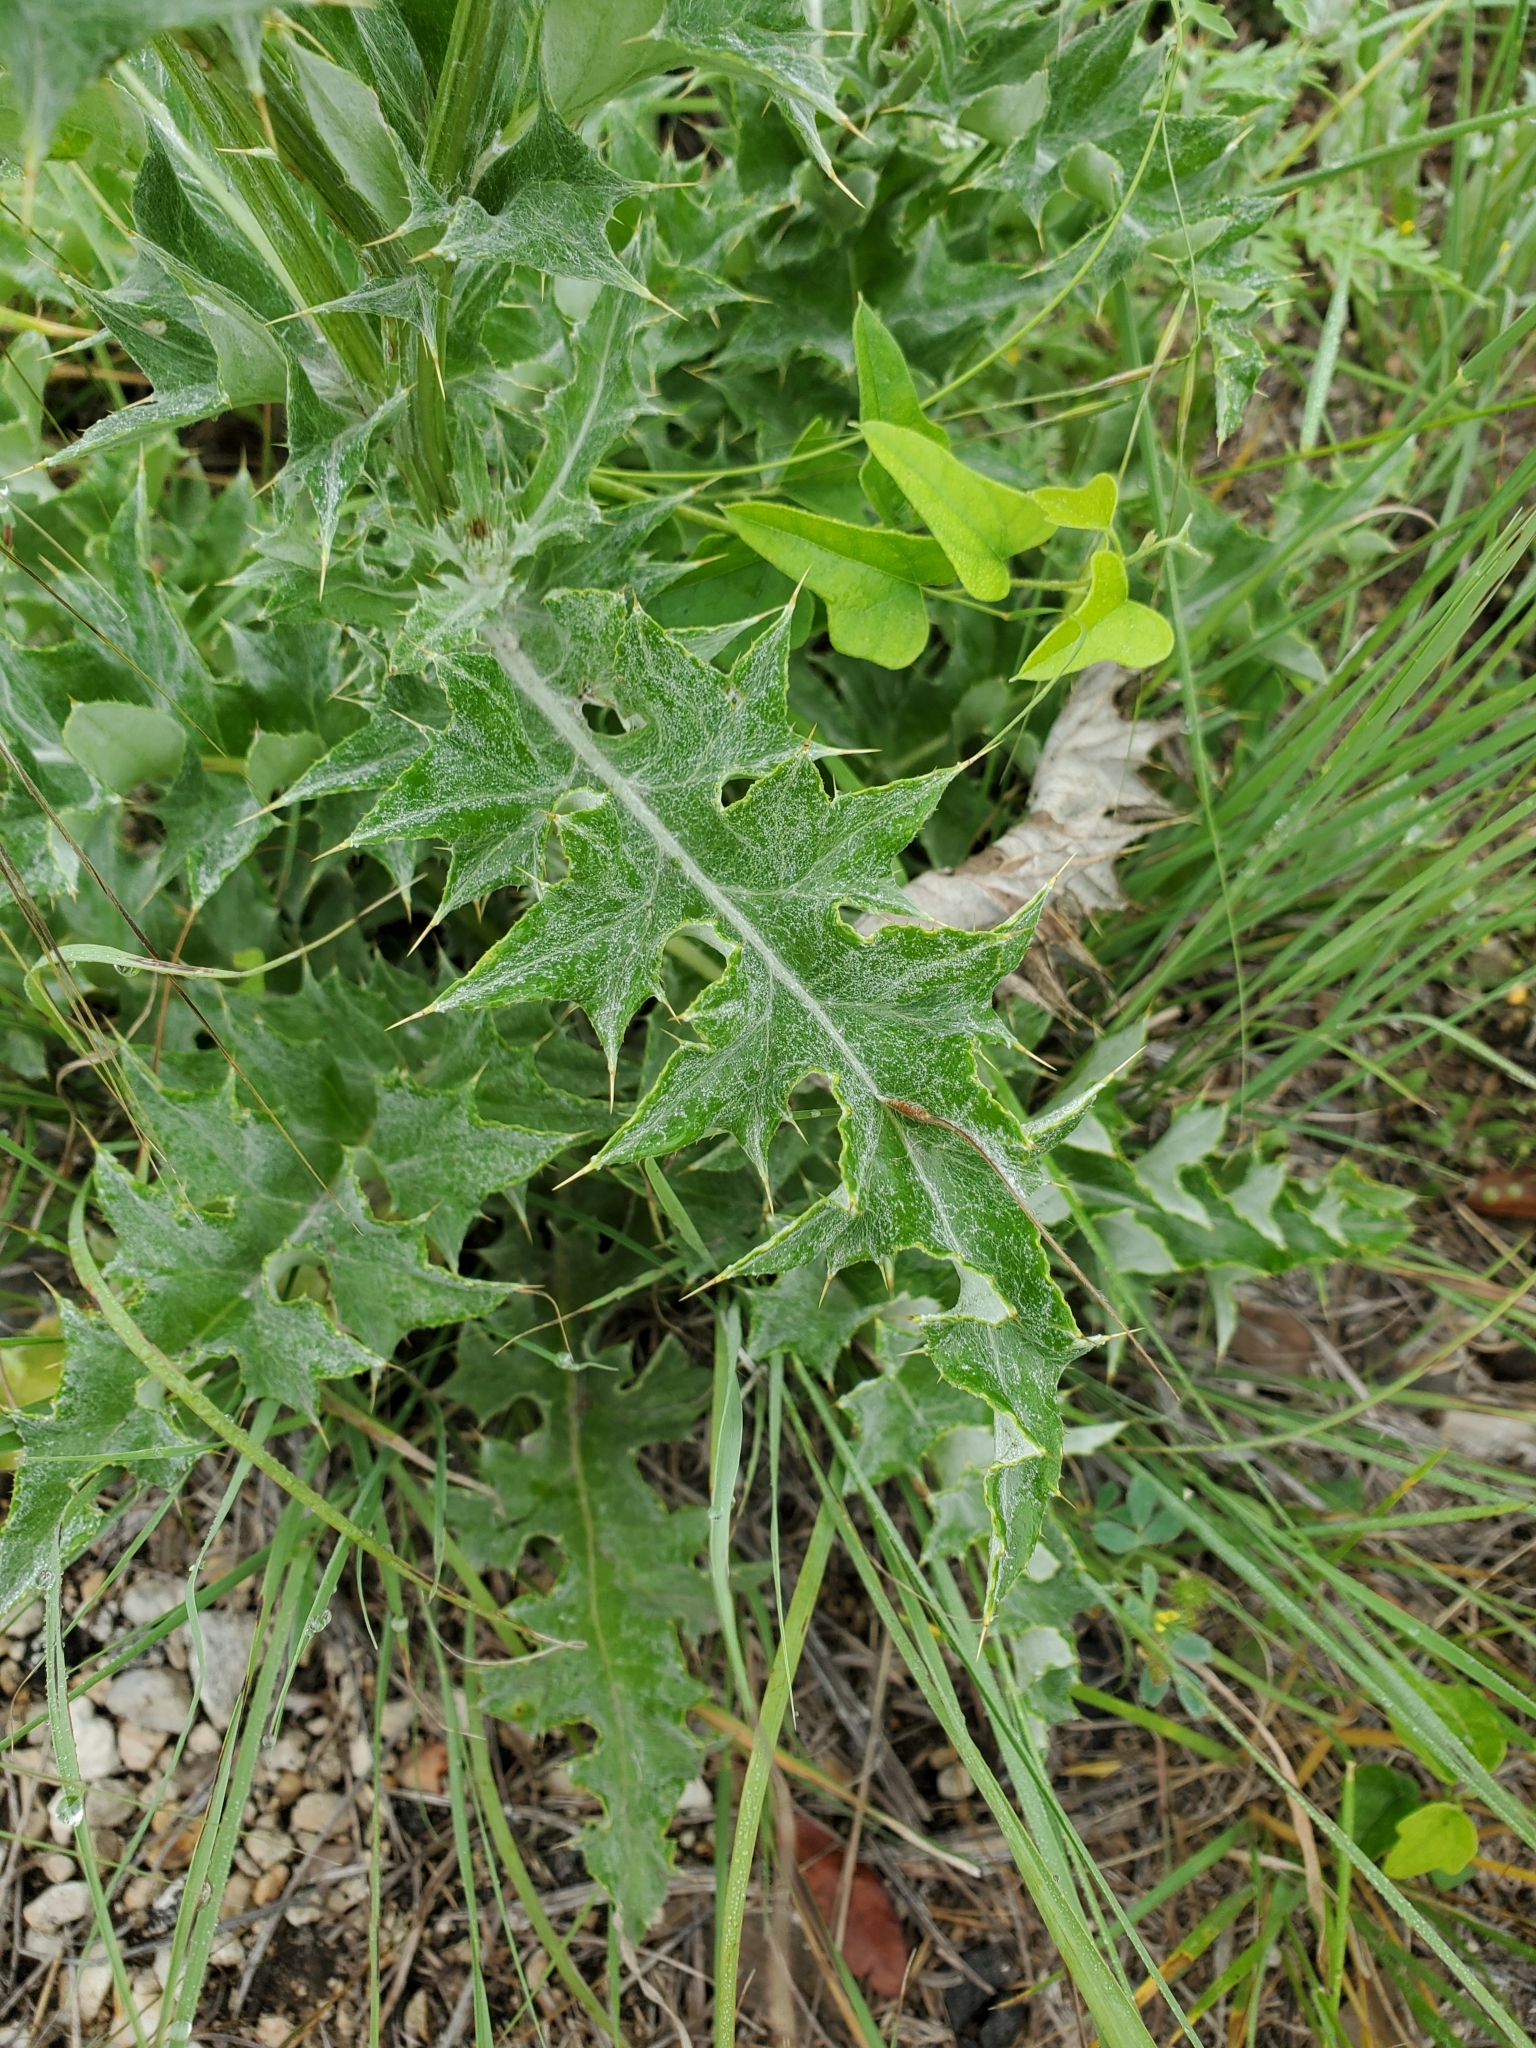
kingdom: Plantae
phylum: Tracheophyta
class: Magnoliopsida
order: Asterales
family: Asteraceae
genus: Cirsium
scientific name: Cirsium texanum
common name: Texas purple thistle
